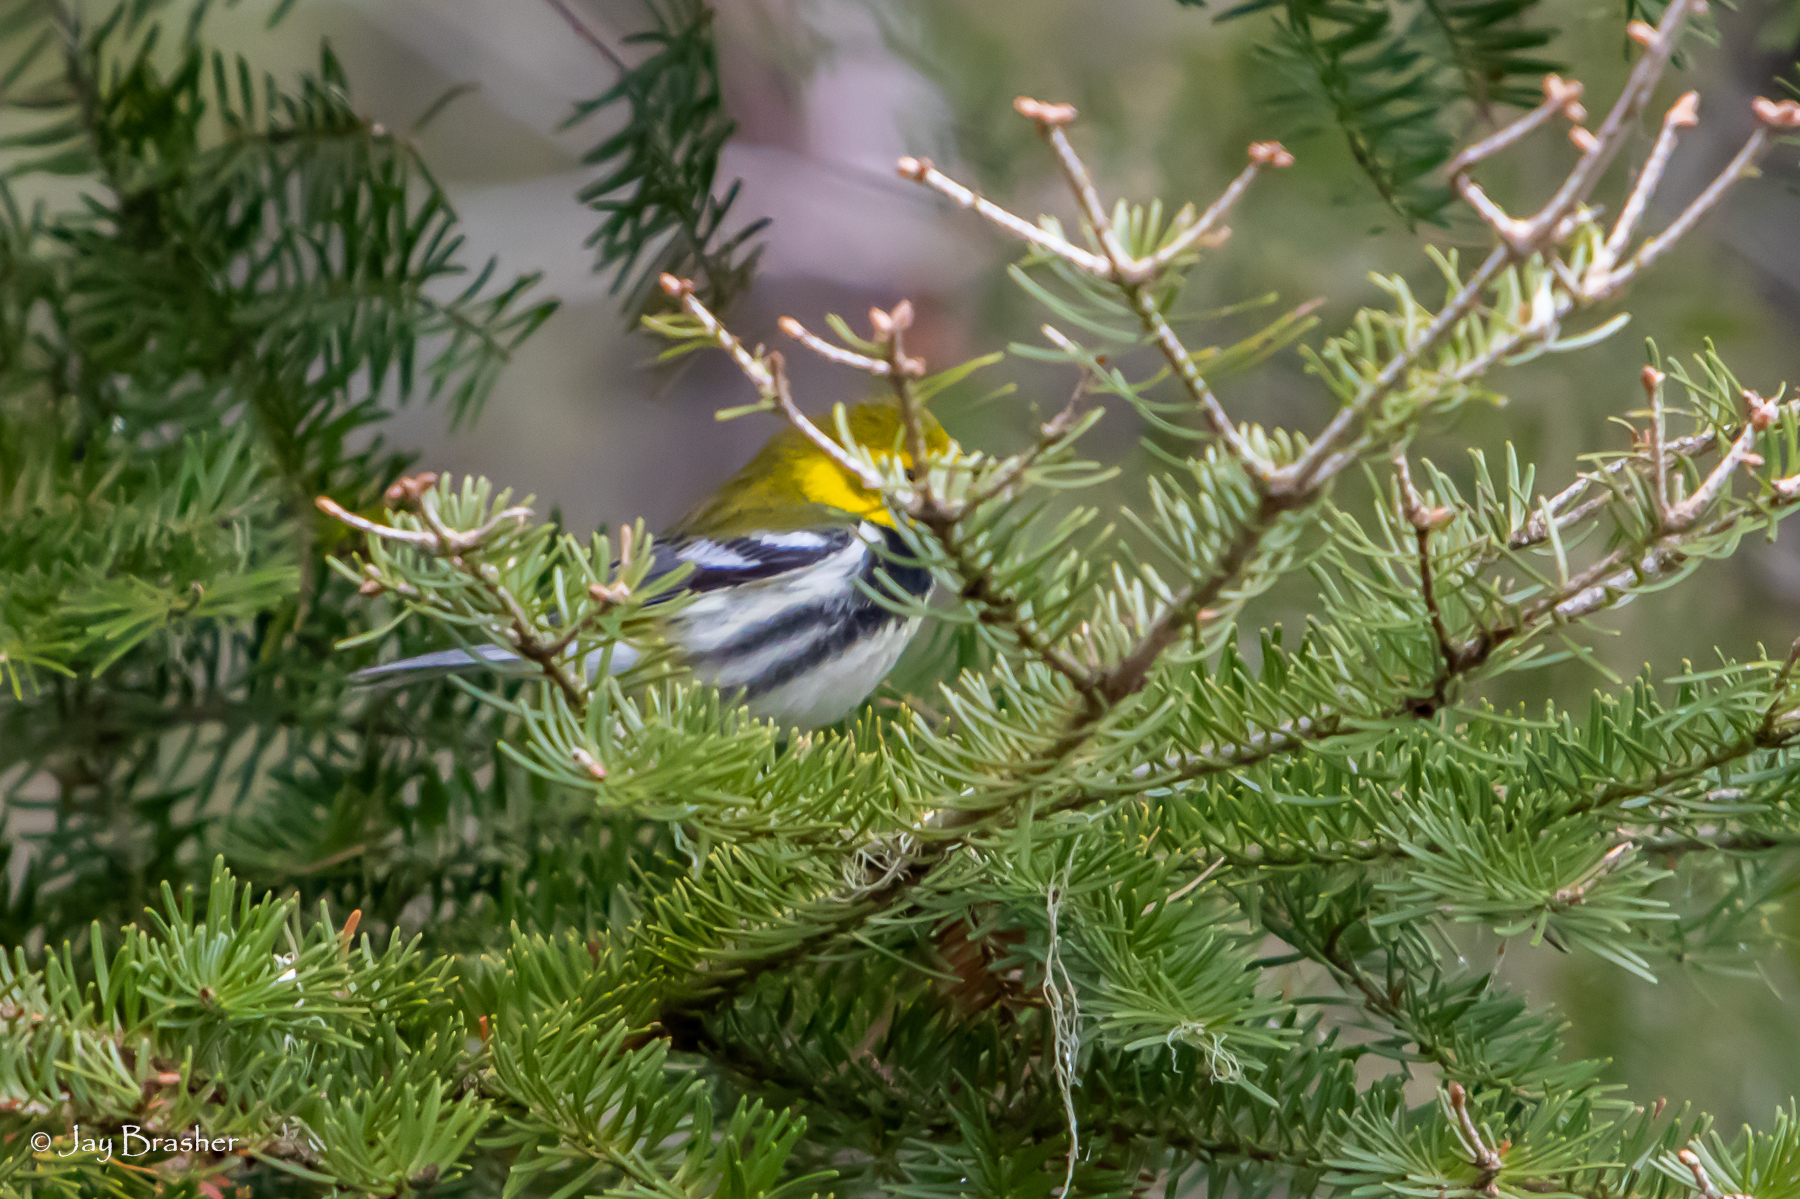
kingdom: Animalia
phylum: Chordata
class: Aves
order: Passeriformes
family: Parulidae
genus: Setophaga
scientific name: Setophaga virens
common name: Black-throated green warbler
